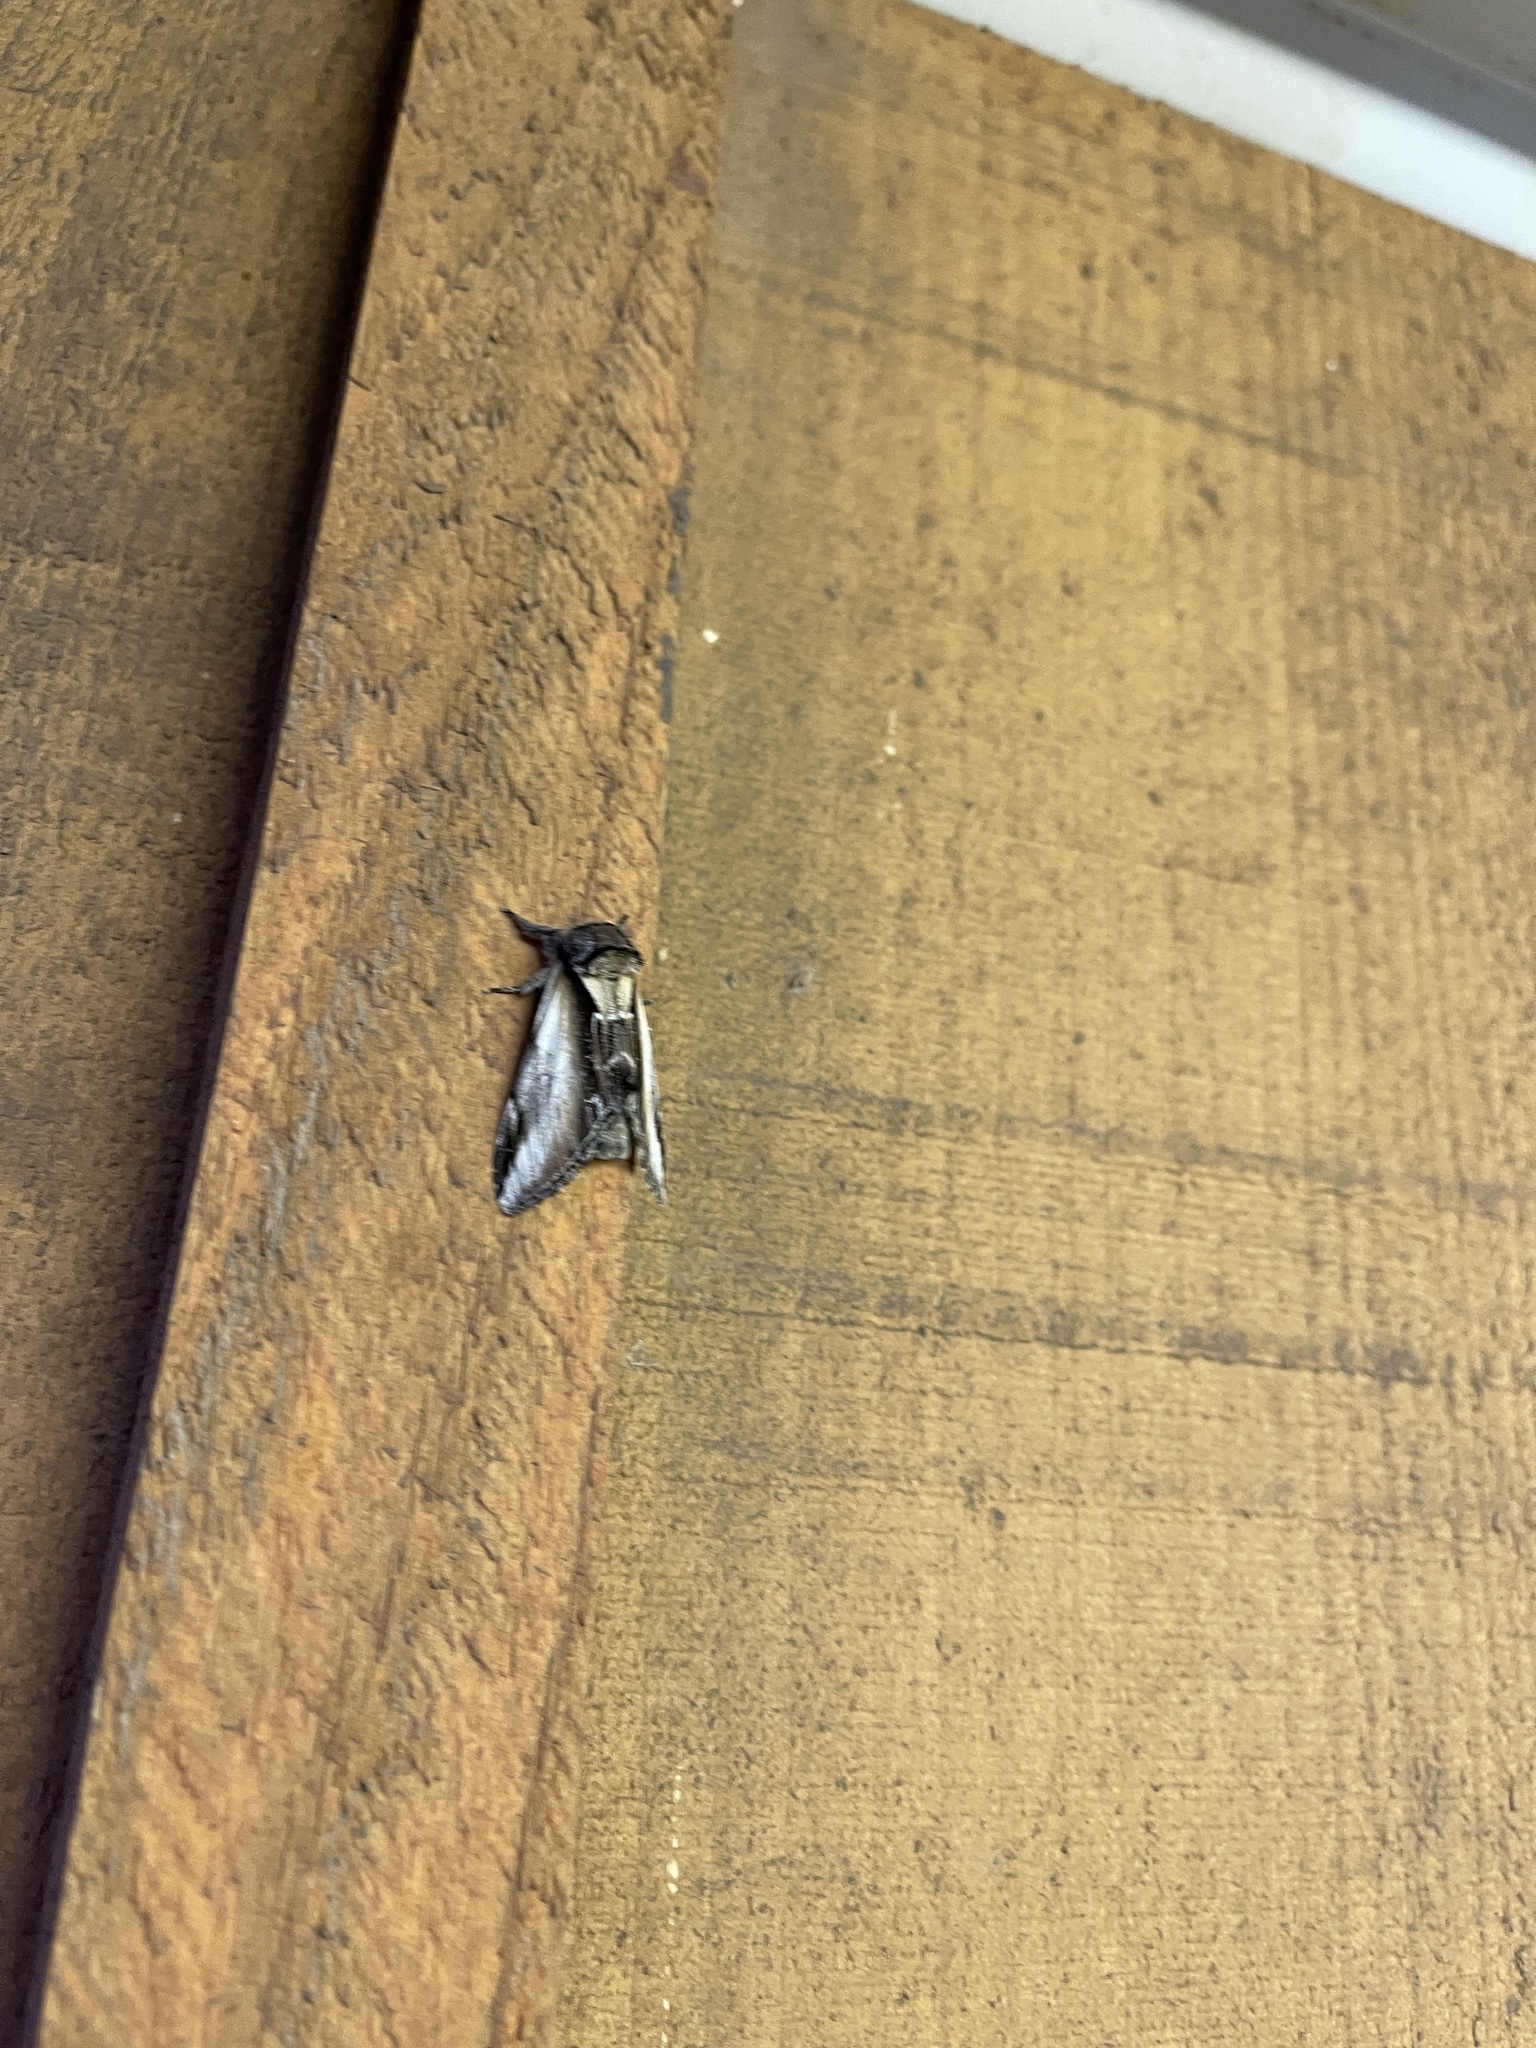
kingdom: Animalia
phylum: Arthropoda
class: Insecta
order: Lepidoptera
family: Notodontidae
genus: Pheosia
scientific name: Pheosia rimosa
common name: Black-rimmed prominent
